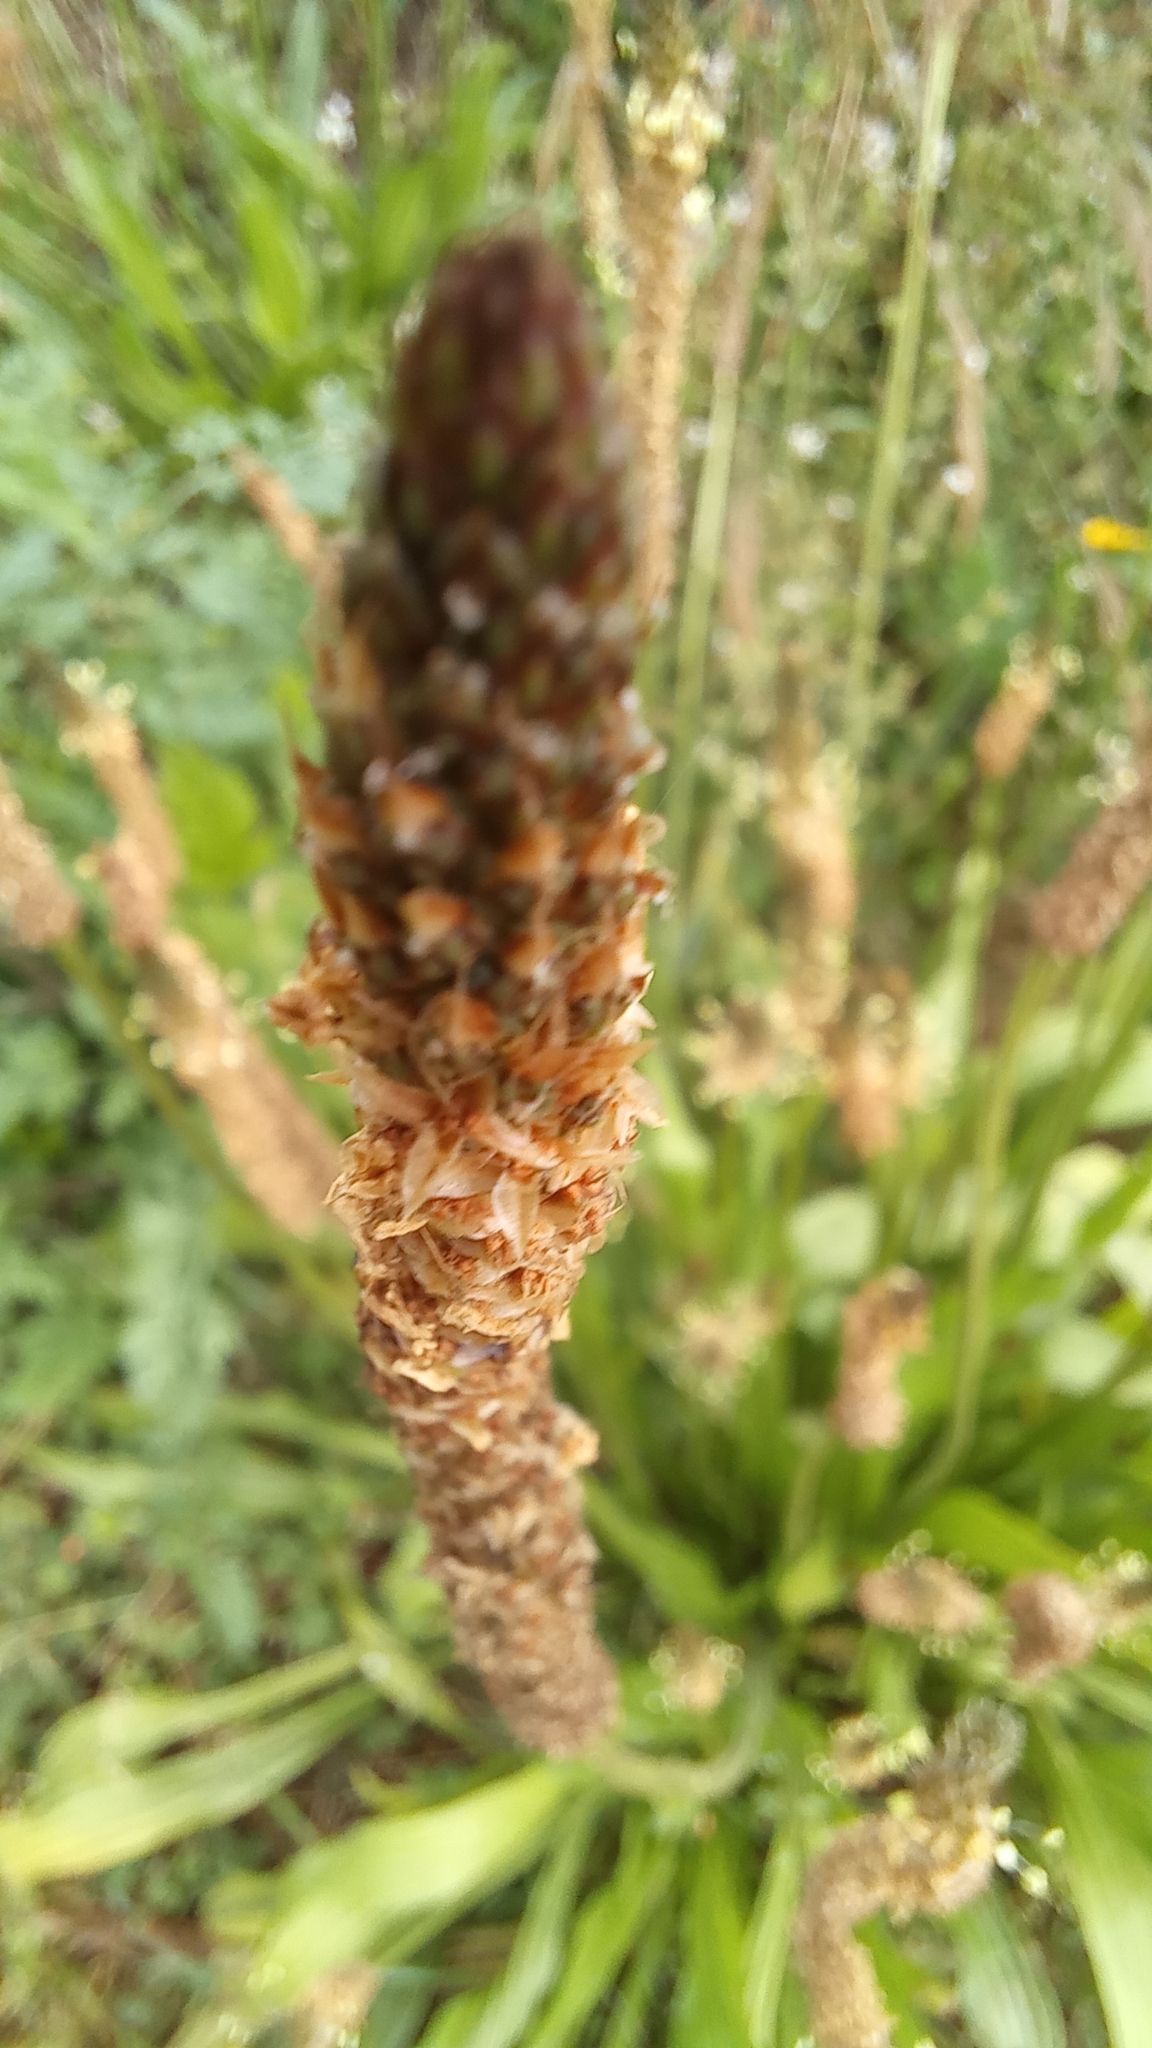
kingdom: Plantae
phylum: Tracheophyta
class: Magnoliopsida
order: Lamiales
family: Plantaginaceae
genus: Plantago
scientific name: Plantago lanceolata
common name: Ribwort plantain
